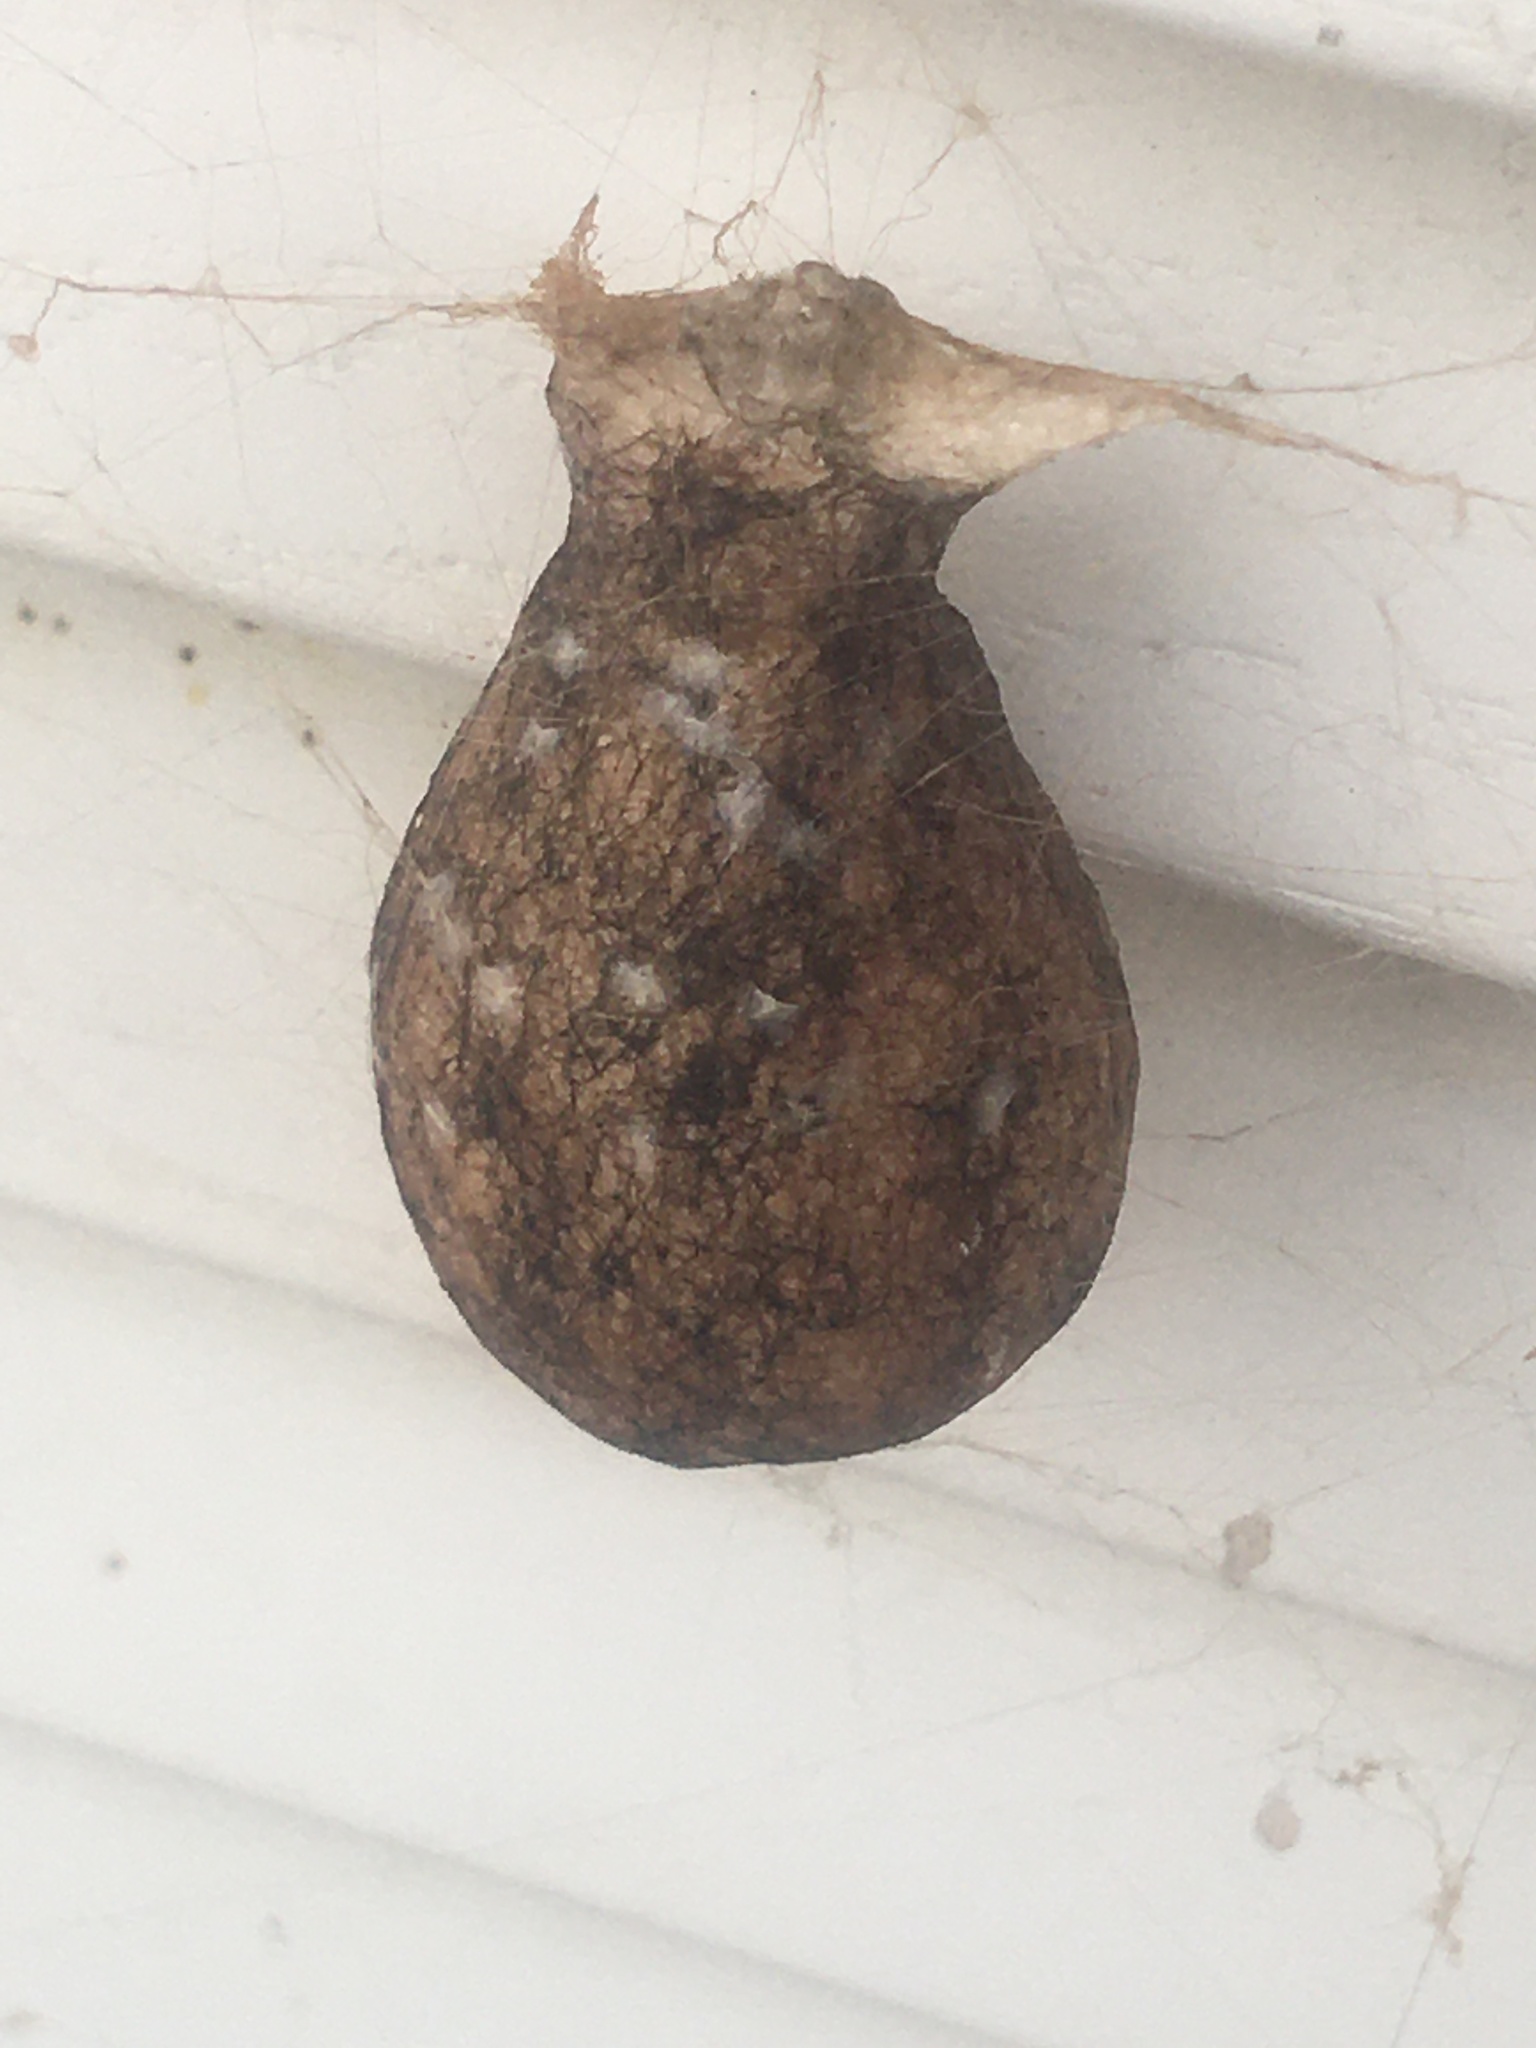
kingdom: Animalia
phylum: Arthropoda
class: Arachnida
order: Araneae
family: Araneidae
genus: Argiope
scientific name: Argiope aurantia
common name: Orb weavers
